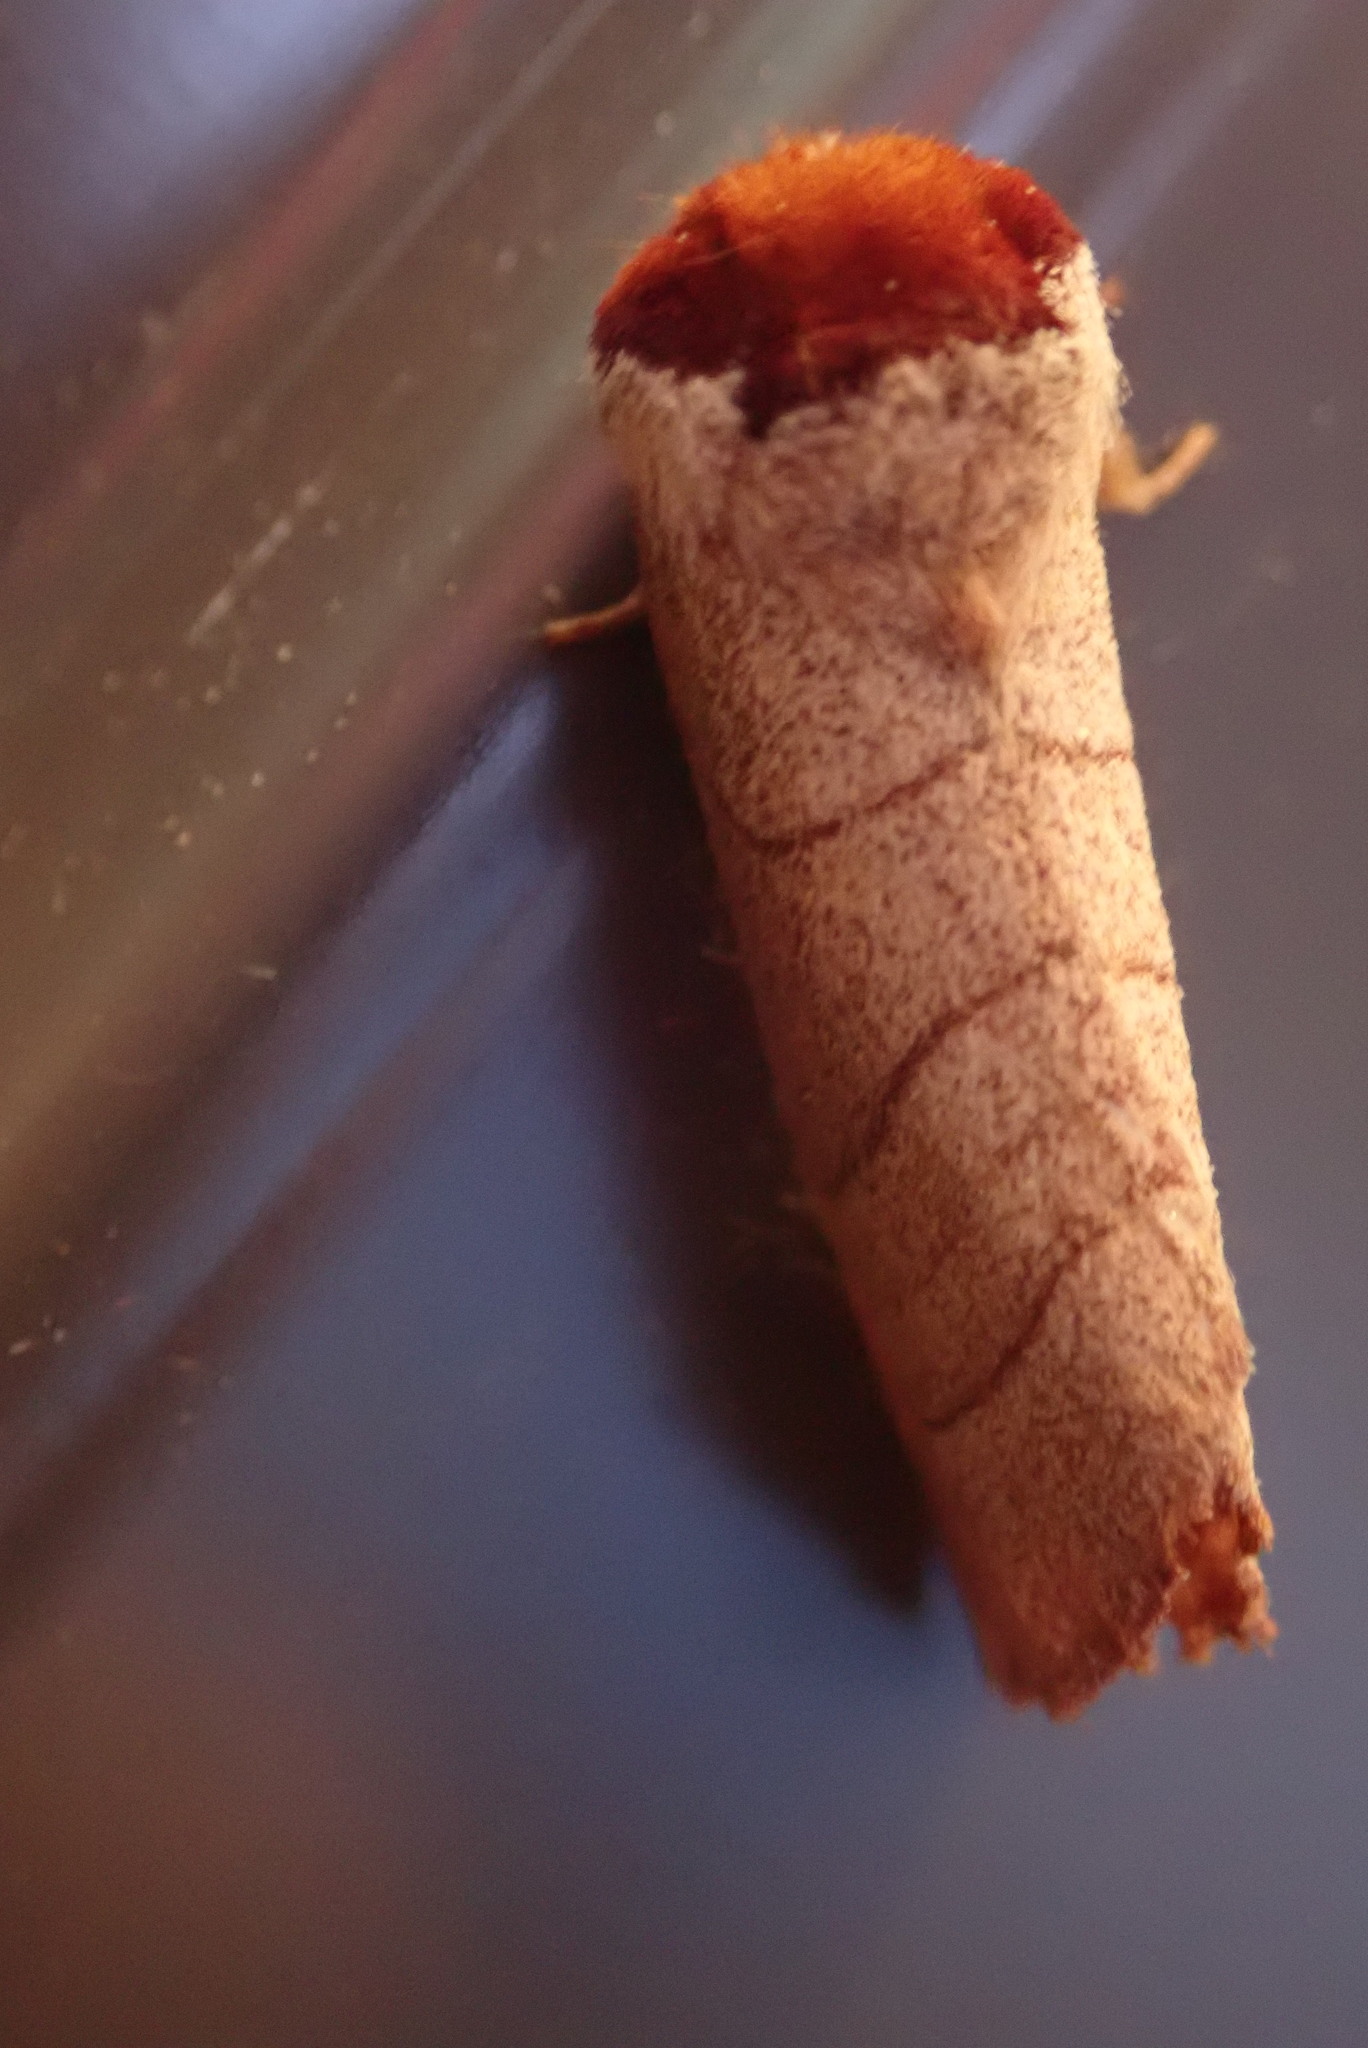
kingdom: Animalia
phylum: Arthropoda
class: Insecta
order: Lepidoptera
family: Notodontidae
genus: Datana
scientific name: Datana ministra
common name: Yellow-necked caterpillar moth
